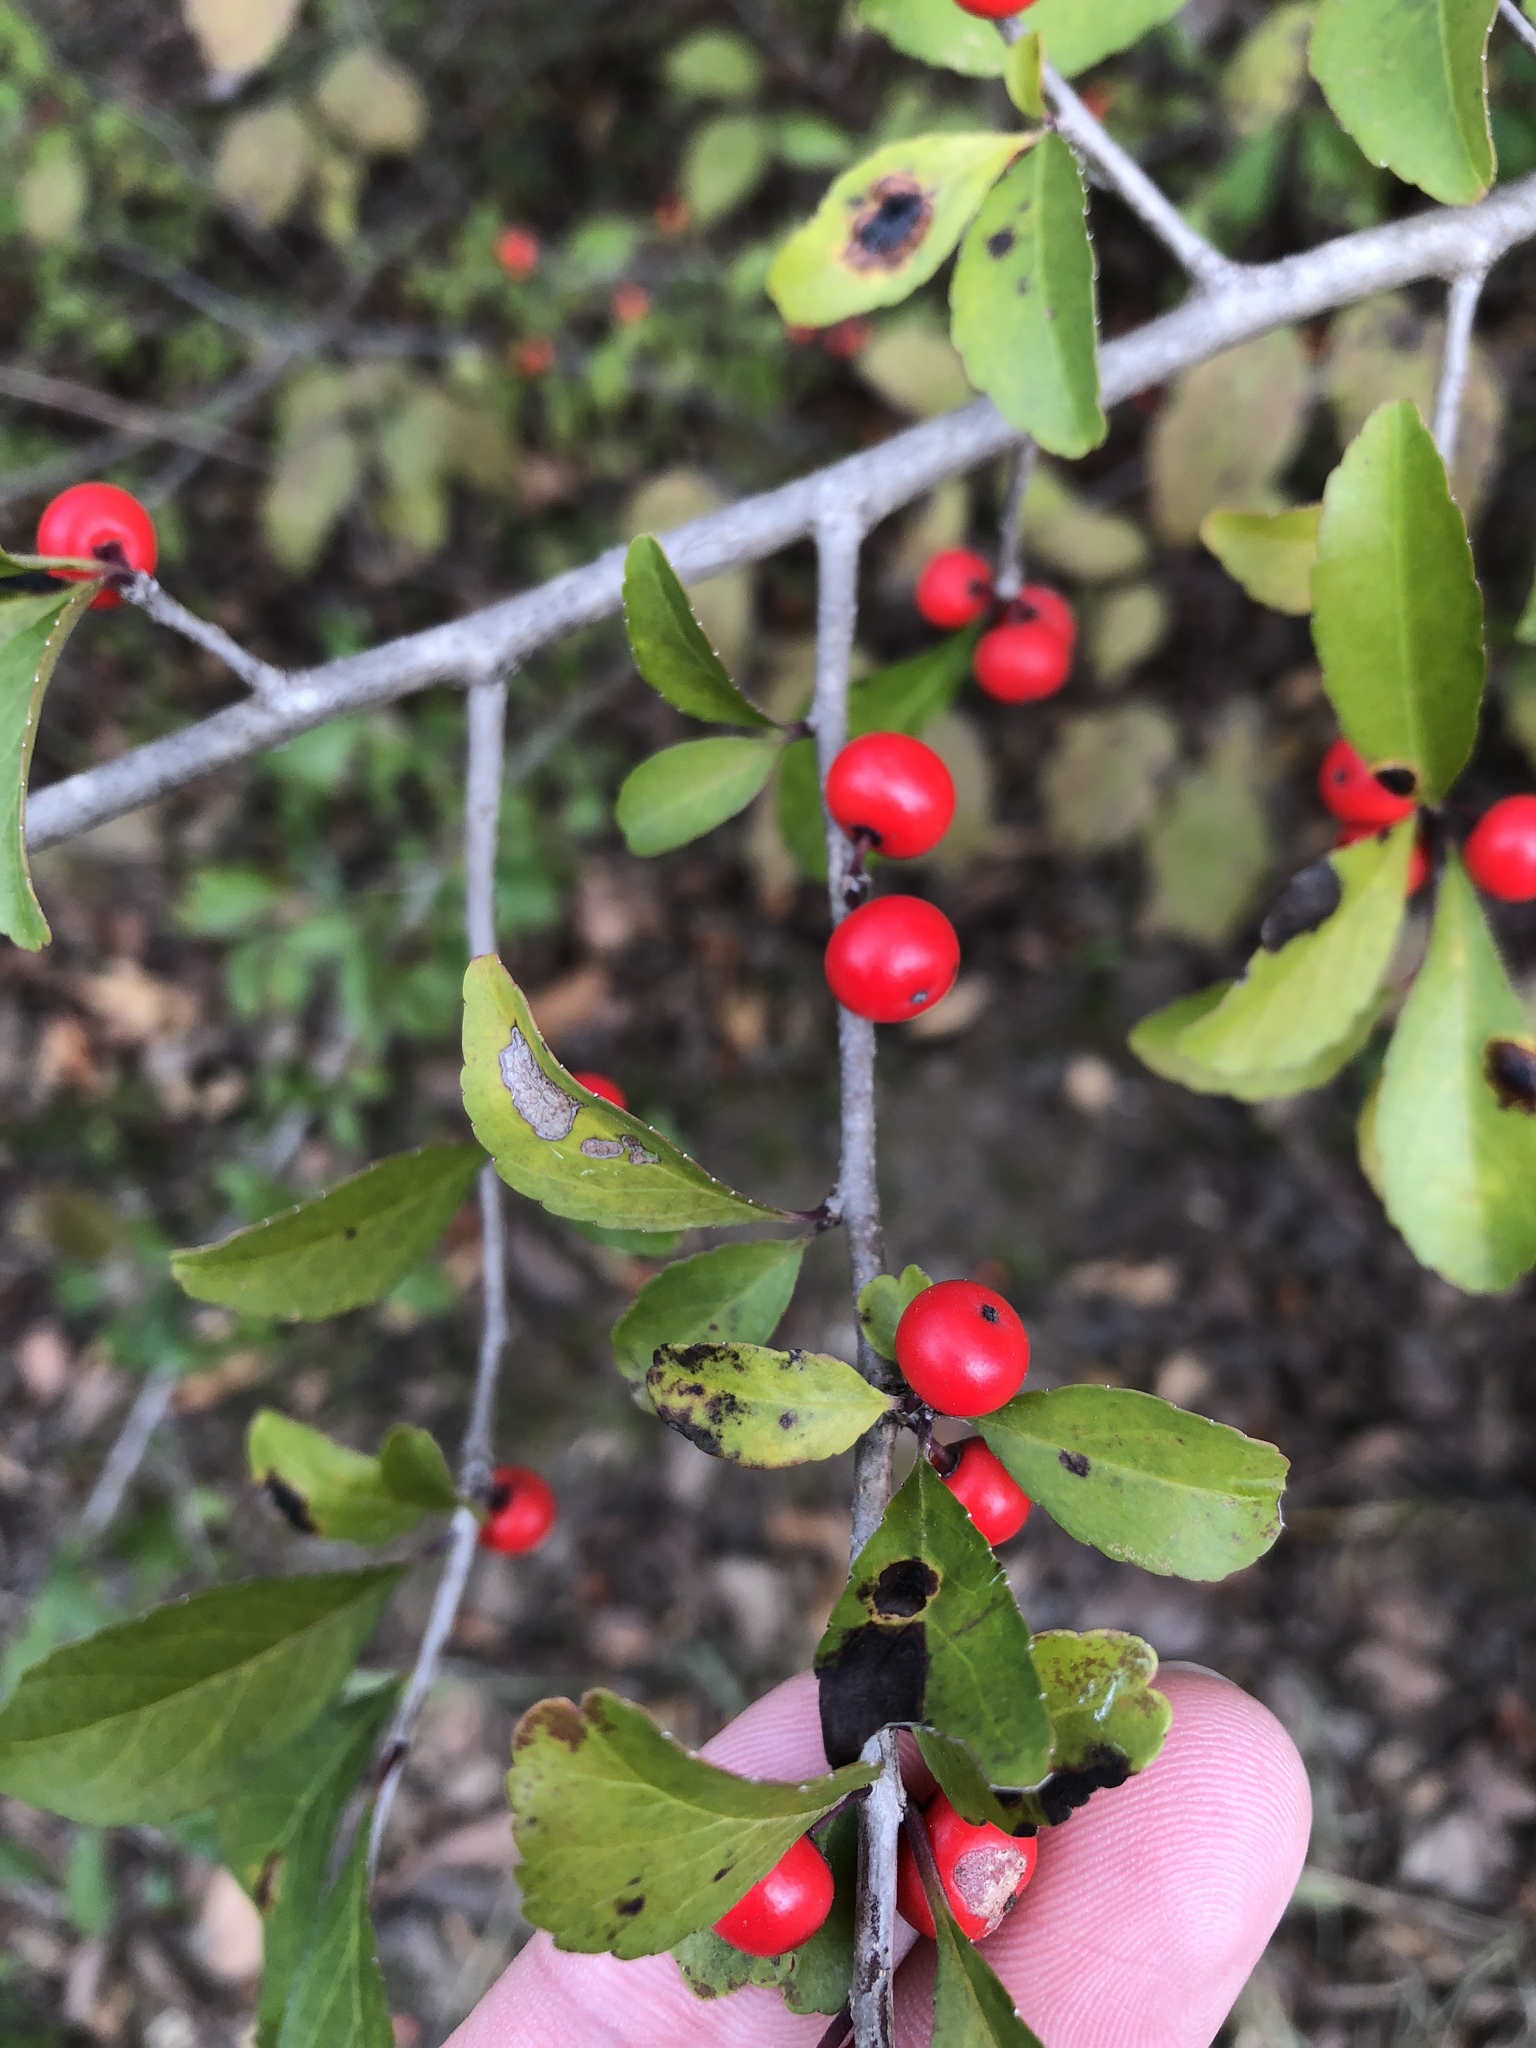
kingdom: Plantae
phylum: Tracheophyta
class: Magnoliopsida
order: Aquifoliales
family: Aquifoliaceae
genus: Ilex
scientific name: Ilex decidua
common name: Possum-haw
